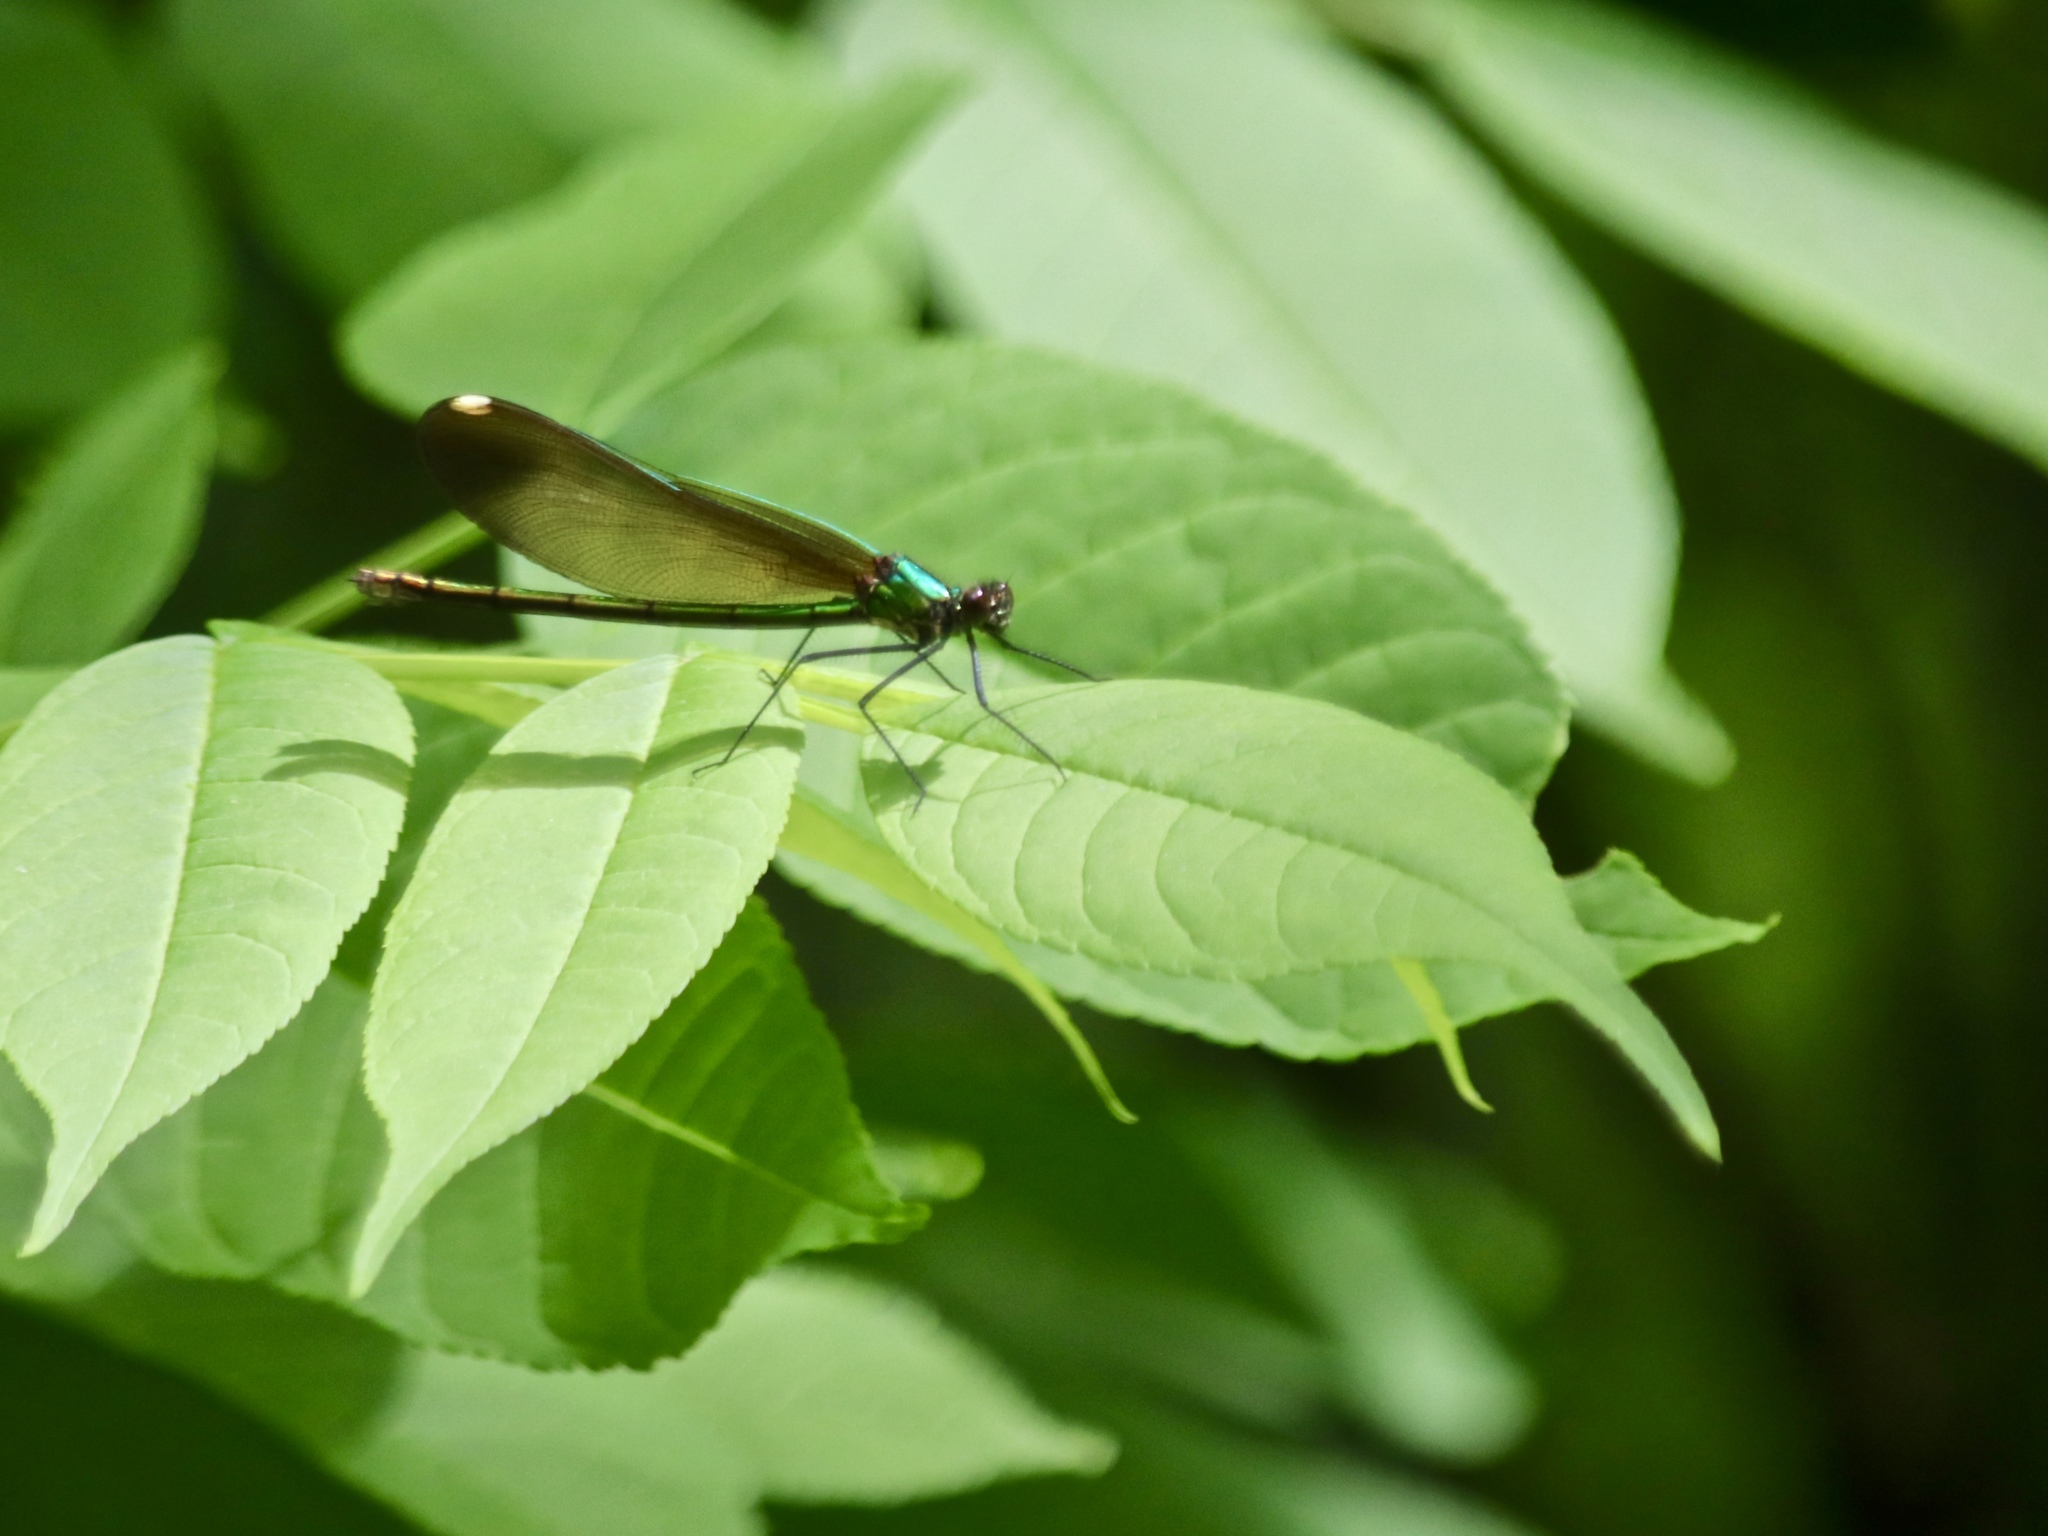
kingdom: Animalia
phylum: Arthropoda
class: Insecta
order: Odonata
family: Calopterygidae
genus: Calopteryx
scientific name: Calopteryx maculata
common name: Ebony jewelwing
